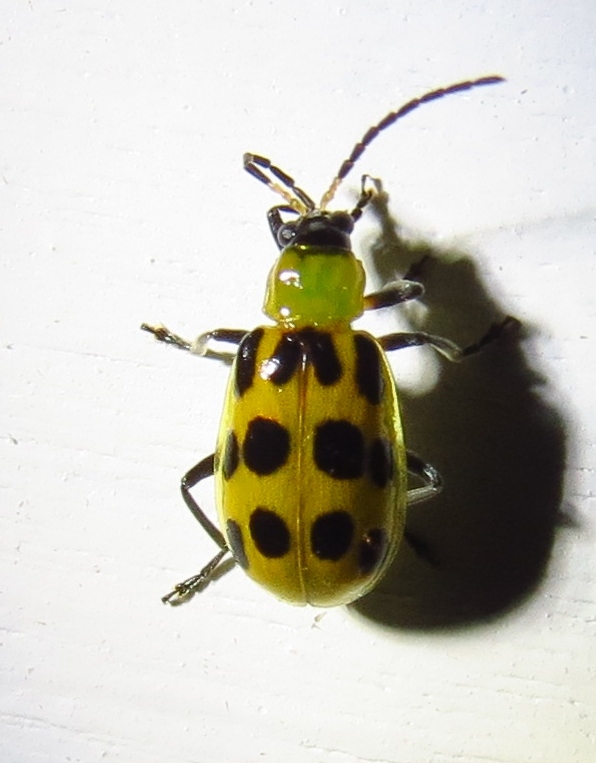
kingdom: Animalia
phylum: Arthropoda
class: Insecta
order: Coleoptera
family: Chrysomelidae
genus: Diabrotica
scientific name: Diabrotica undecimpunctata
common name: Spotted cucumber beetle
